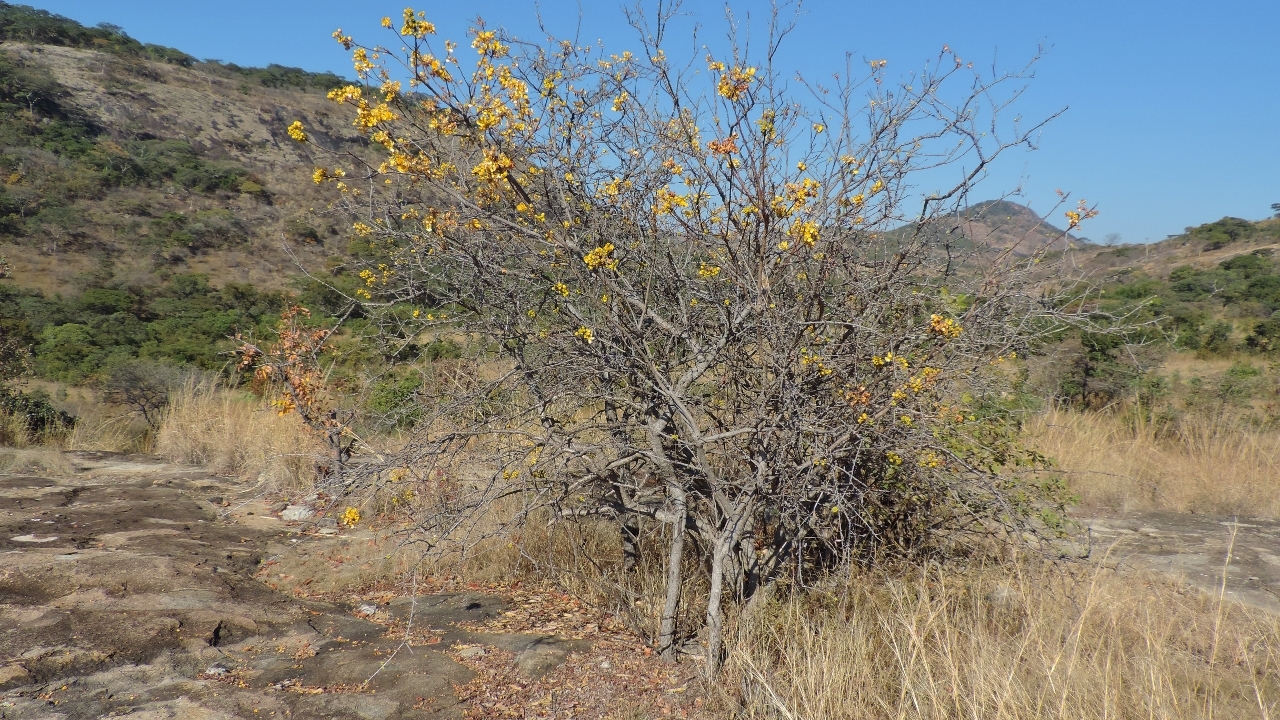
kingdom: Plantae
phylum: Tracheophyta
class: Magnoliopsida
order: Fabales
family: Fabaceae
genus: Senna
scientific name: Senna singueana
